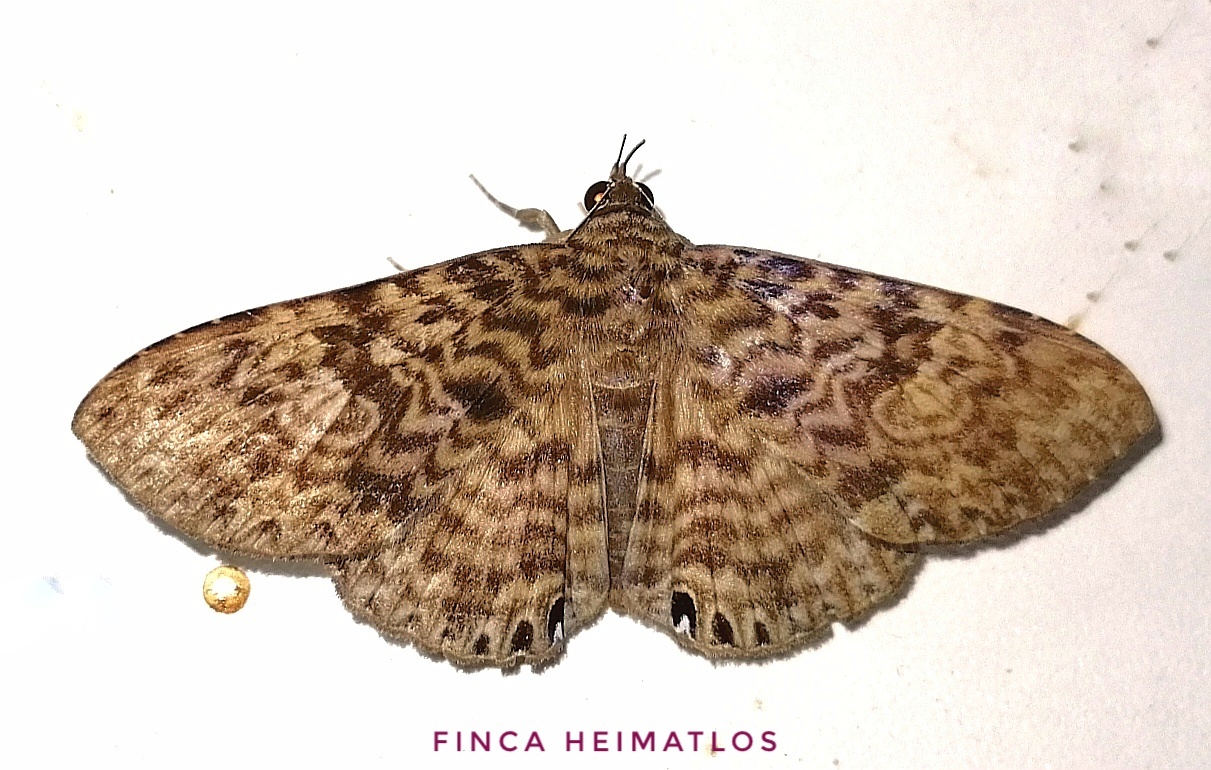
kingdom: Animalia
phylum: Arthropoda
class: Insecta
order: Lepidoptera
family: Erebidae
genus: Dialithis
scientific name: Dialithis gemmifera
